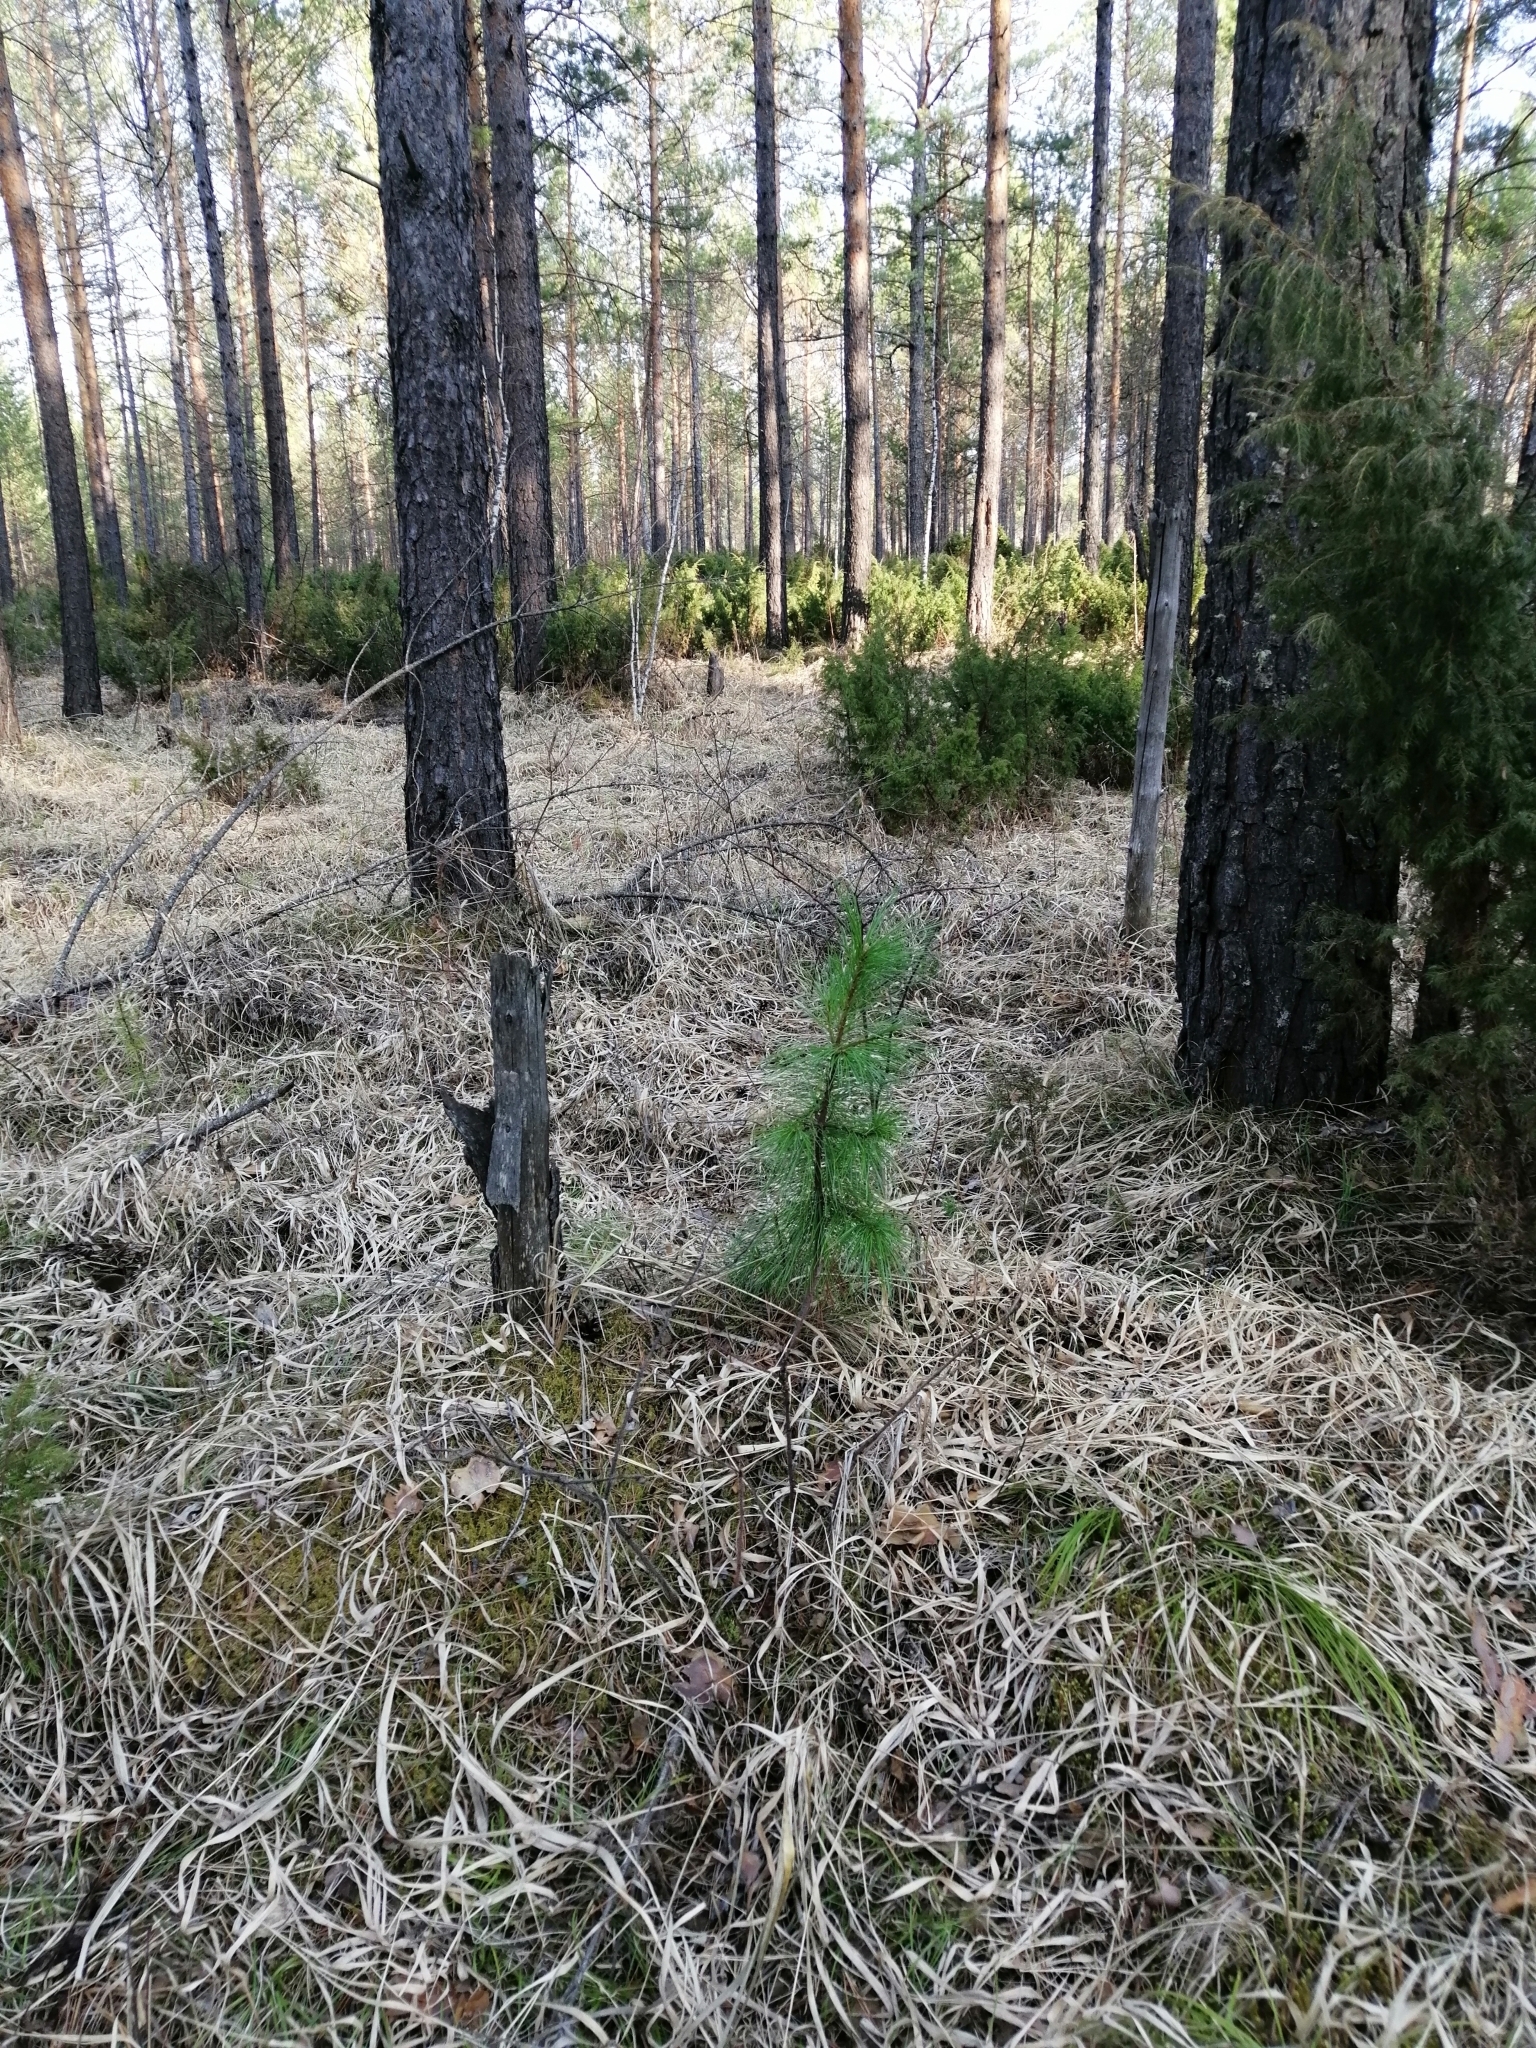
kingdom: Plantae
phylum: Tracheophyta
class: Pinopsida
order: Pinales
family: Pinaceae
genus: Pinus
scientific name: Pinus sibirica
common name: Siberian pine
